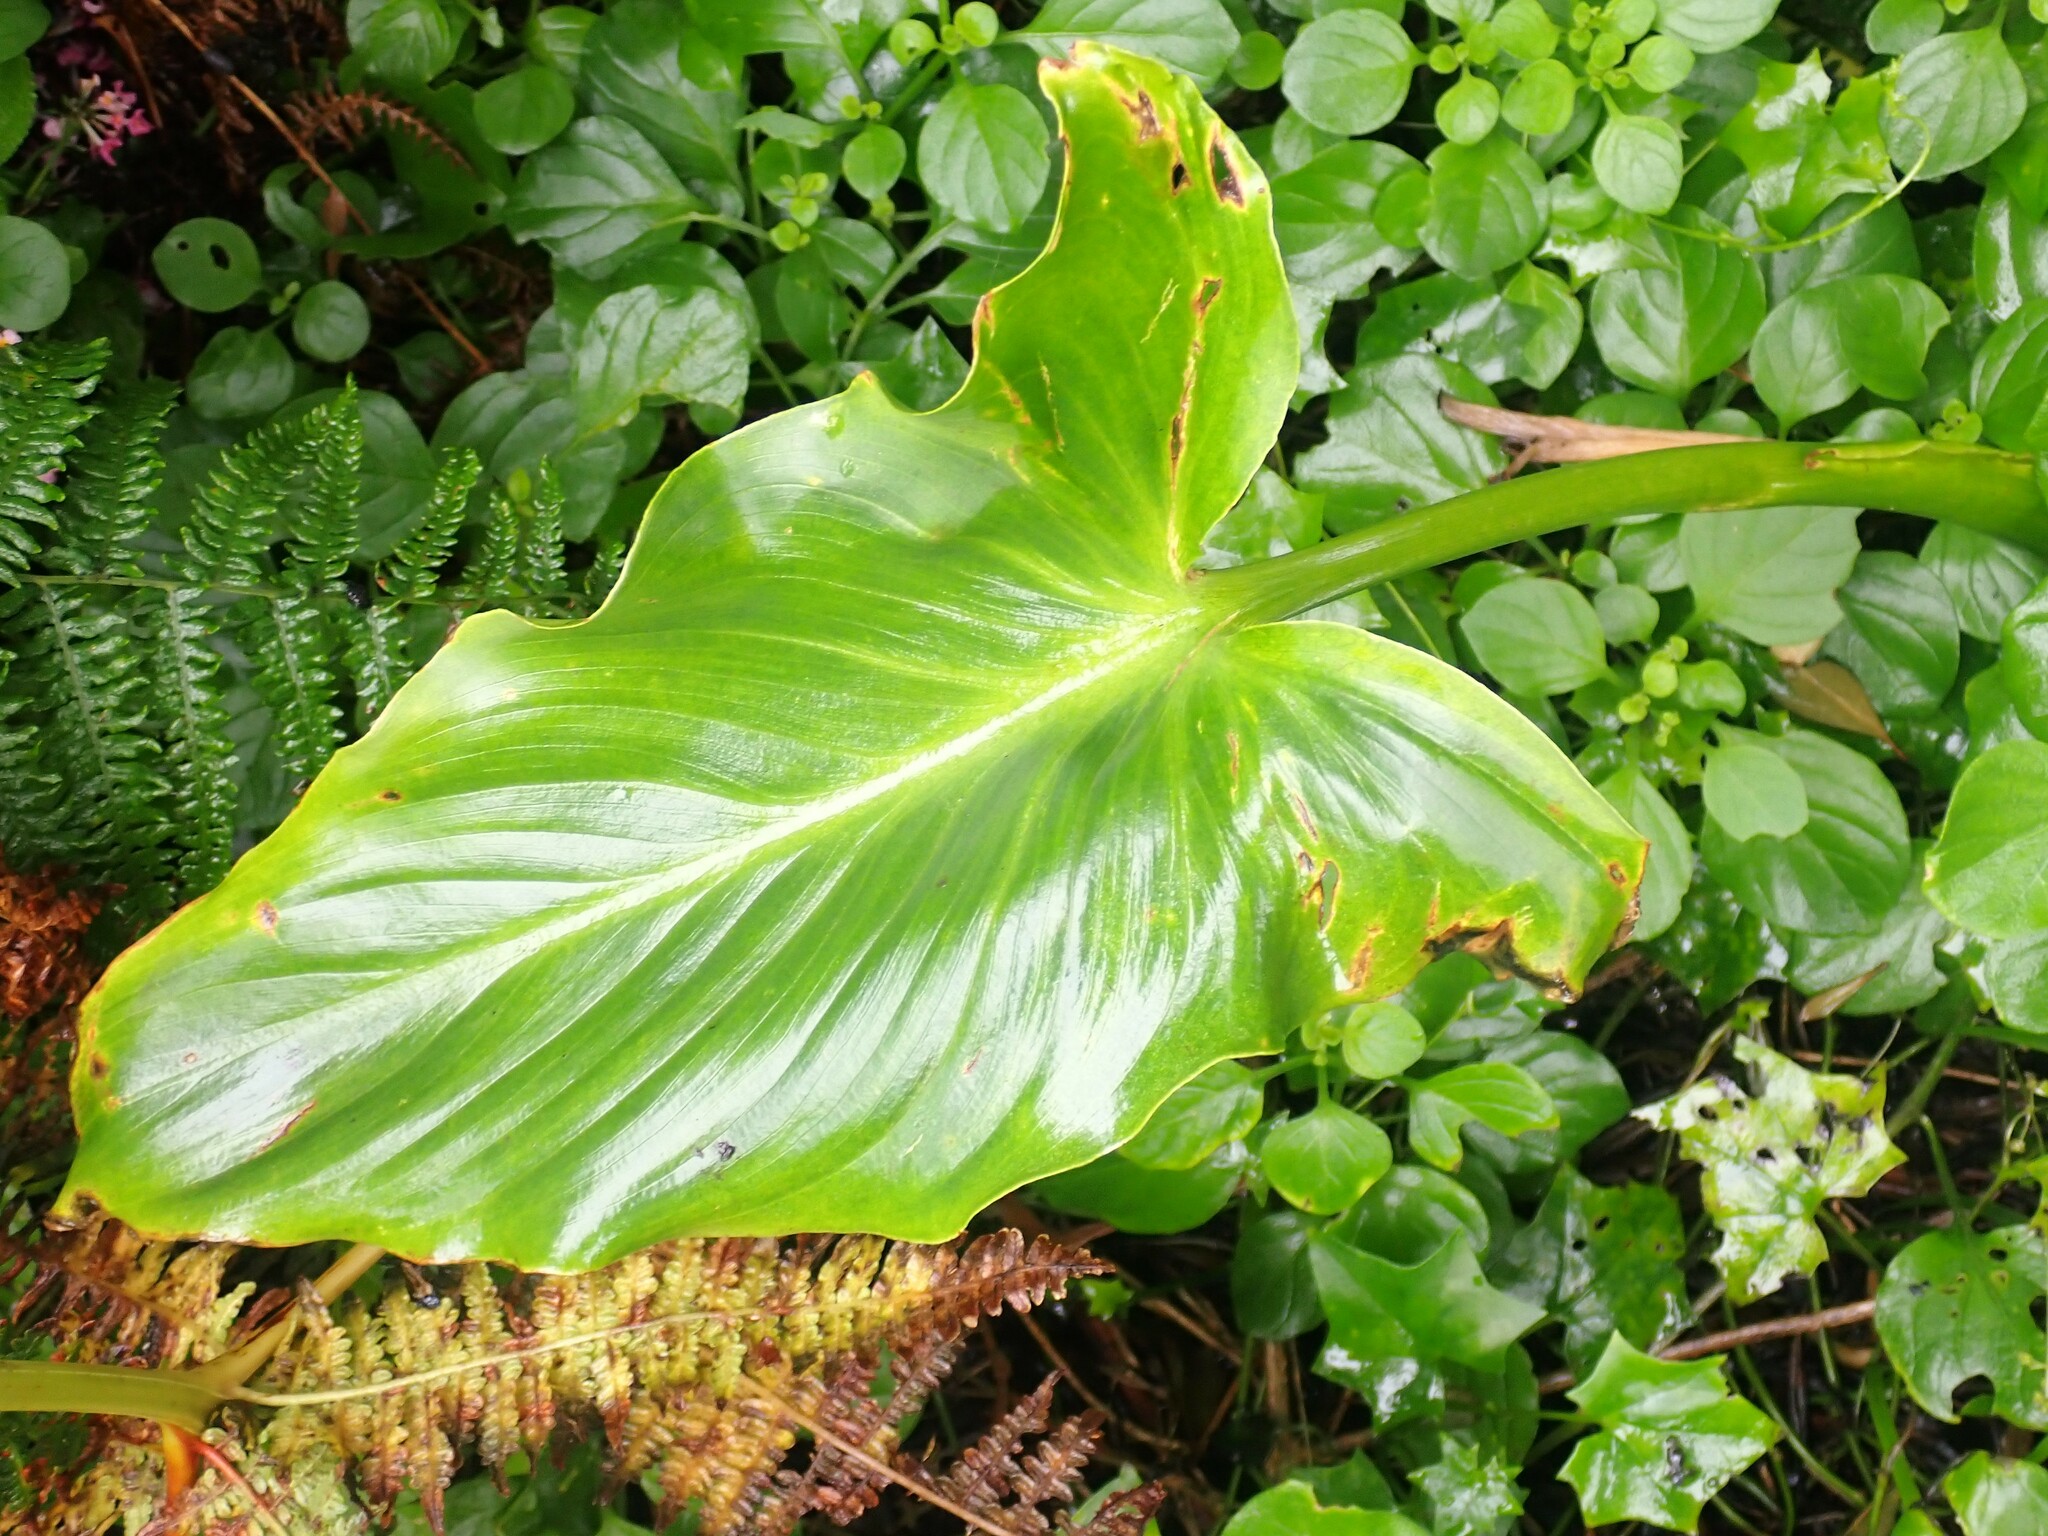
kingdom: Plantae
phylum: Tracheophyta
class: Liliopsida
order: Alismatales
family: Araceae
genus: Zantedeschia
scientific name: Zantedeschia aethiopica
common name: Altar-lily
